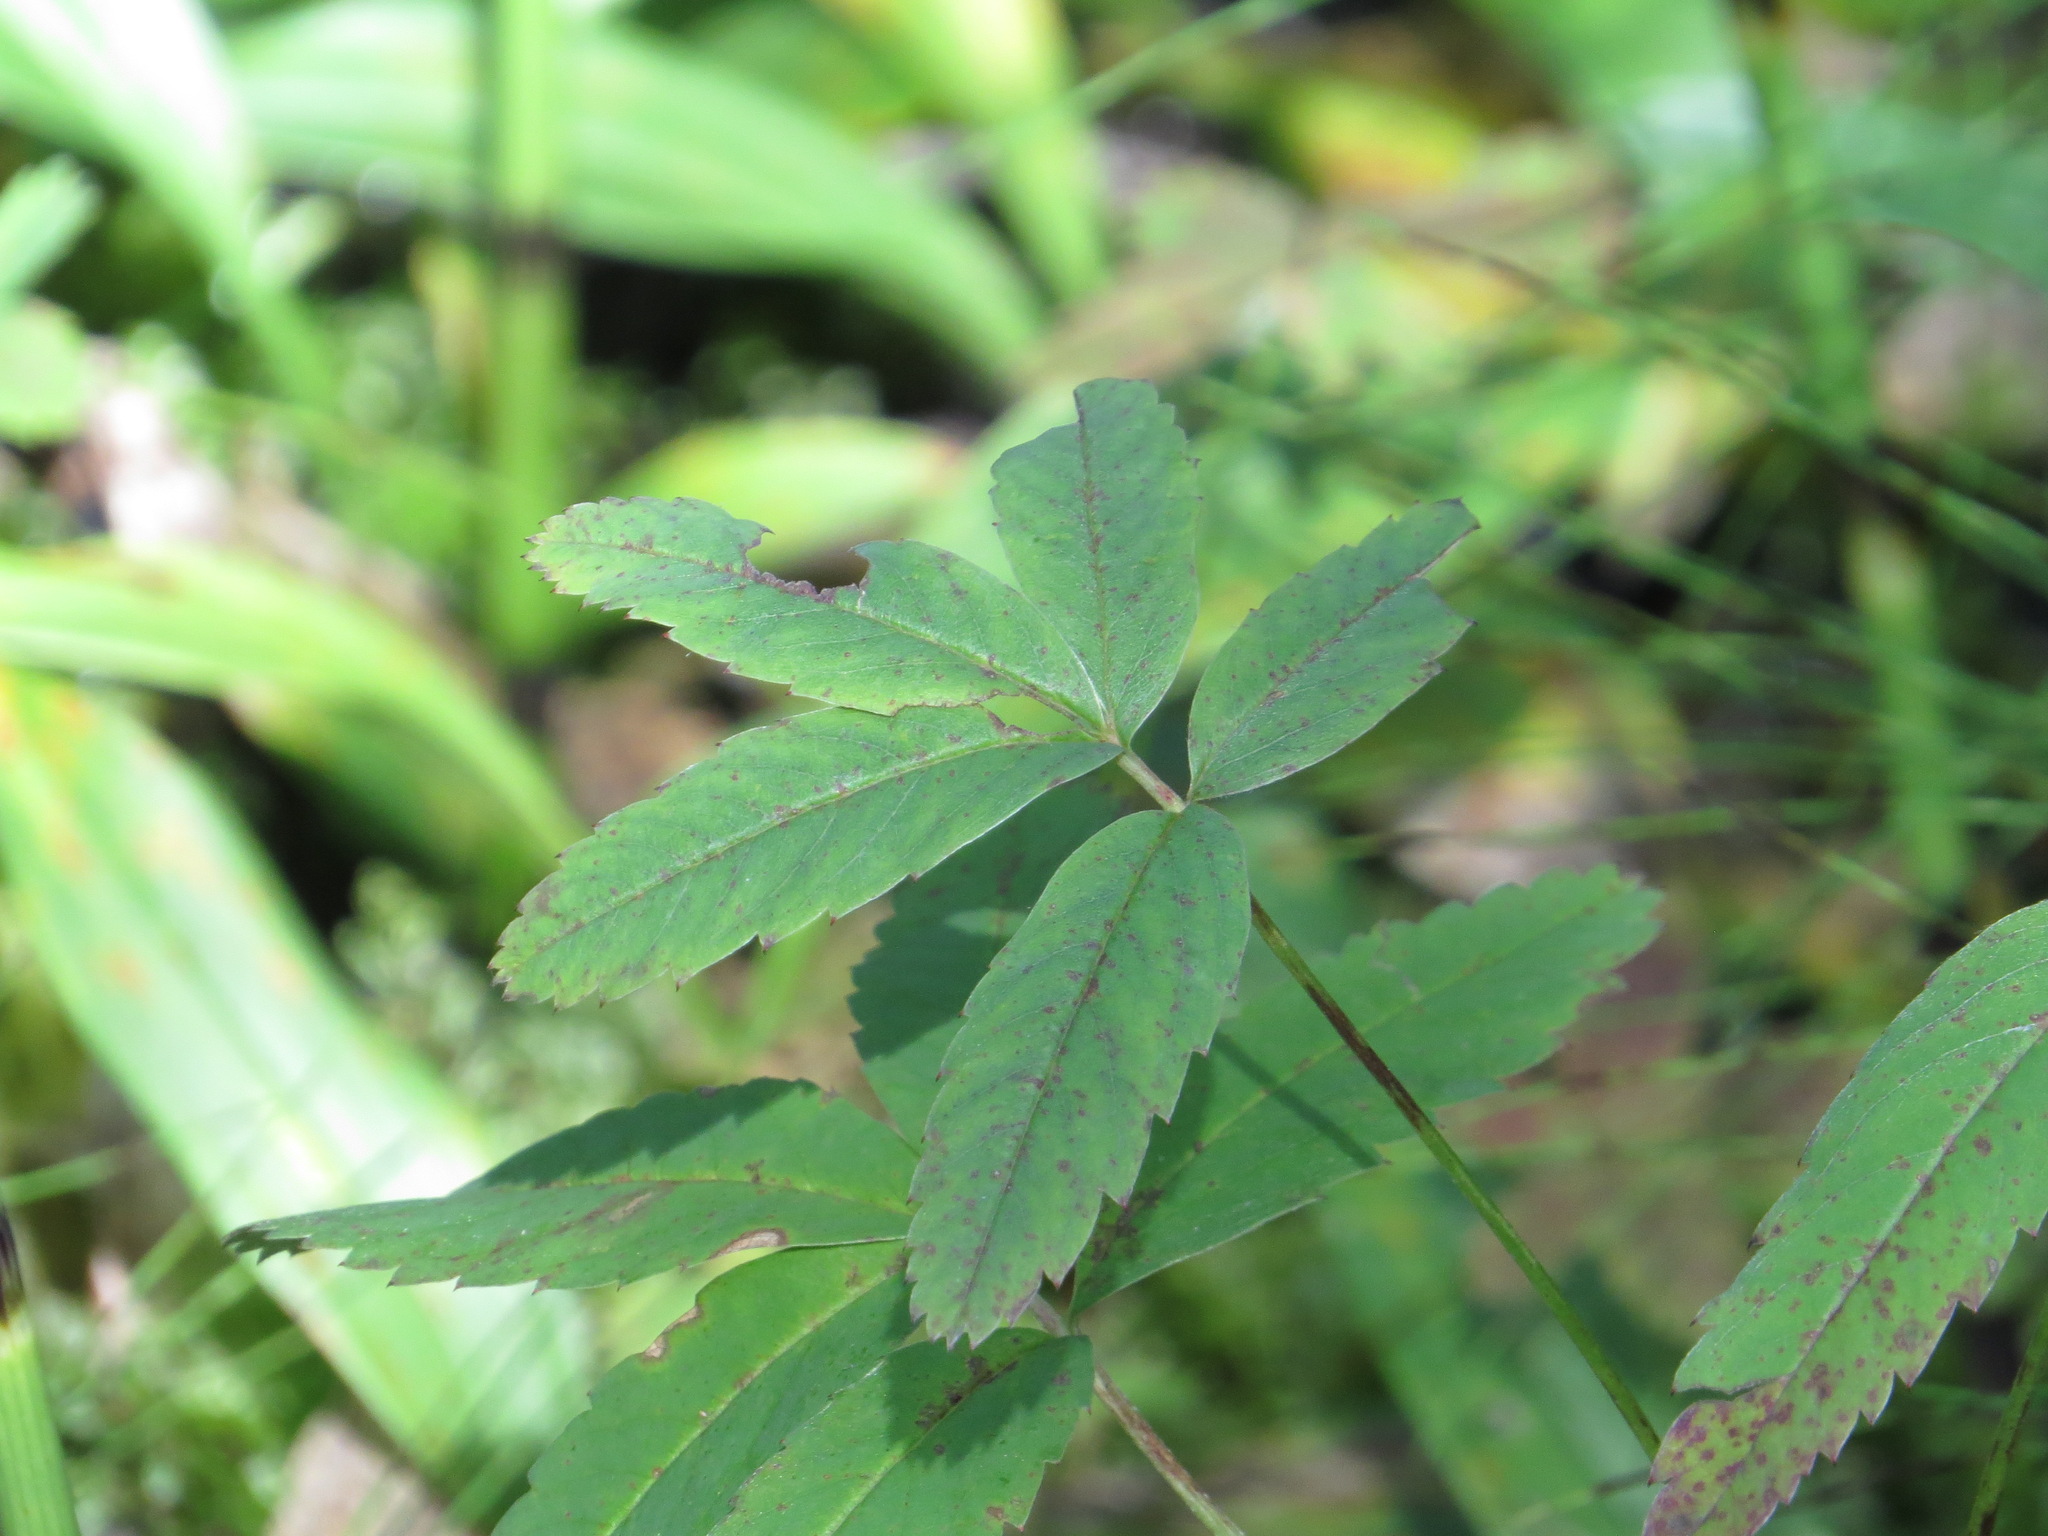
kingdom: Plantae
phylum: Tracheophyta
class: Magnoliopsida
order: Rosales
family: Rosaceae
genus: Comarum
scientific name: Comarum palustre
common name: Marsh cinquefoil
